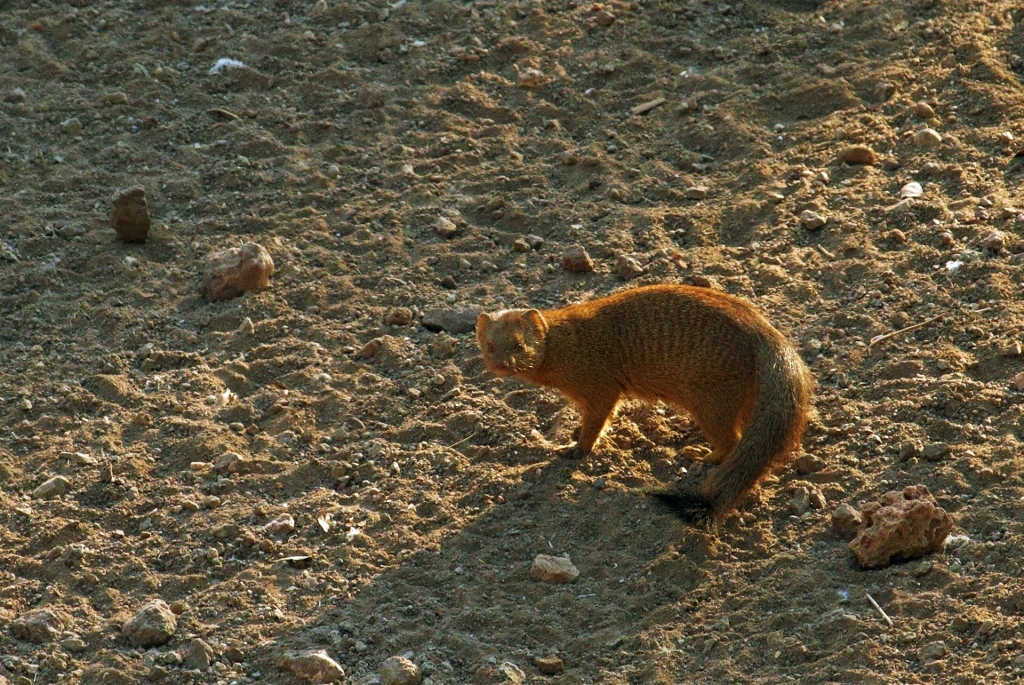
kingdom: Animalia
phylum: Chordata
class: Mammalia
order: Carnivora
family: Herpestidae
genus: Galerella
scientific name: Galerella sanguinea
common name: Slender mongoose
